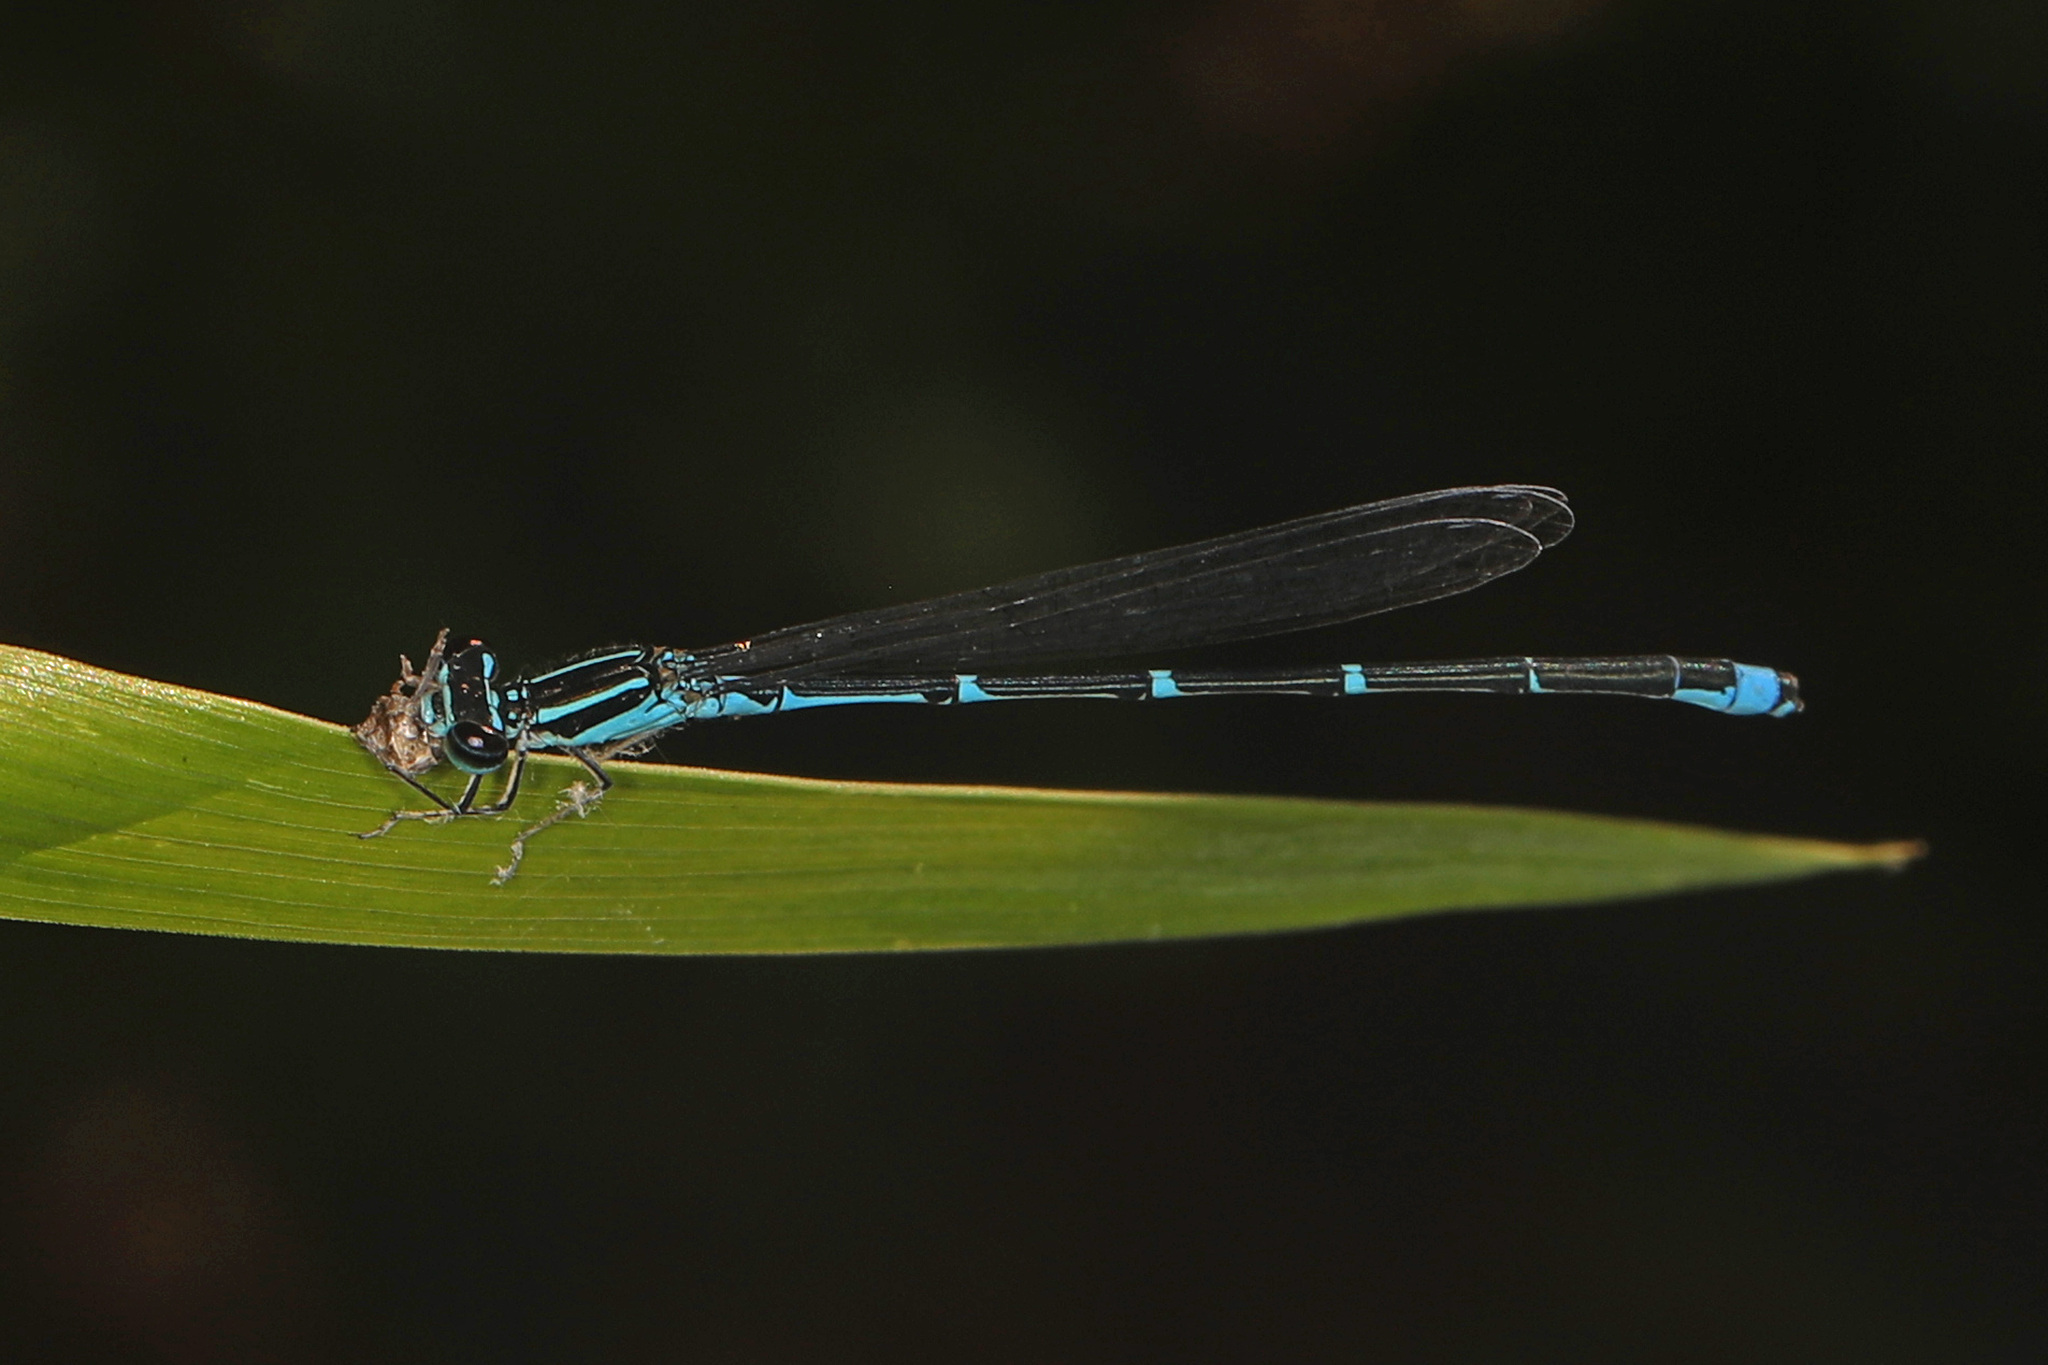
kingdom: Animalia
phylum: Arthropoda
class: Insecta
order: Odonata
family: Coenagrionidae
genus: Enallagma
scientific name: Enallagma exsulans
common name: Stream bluet
